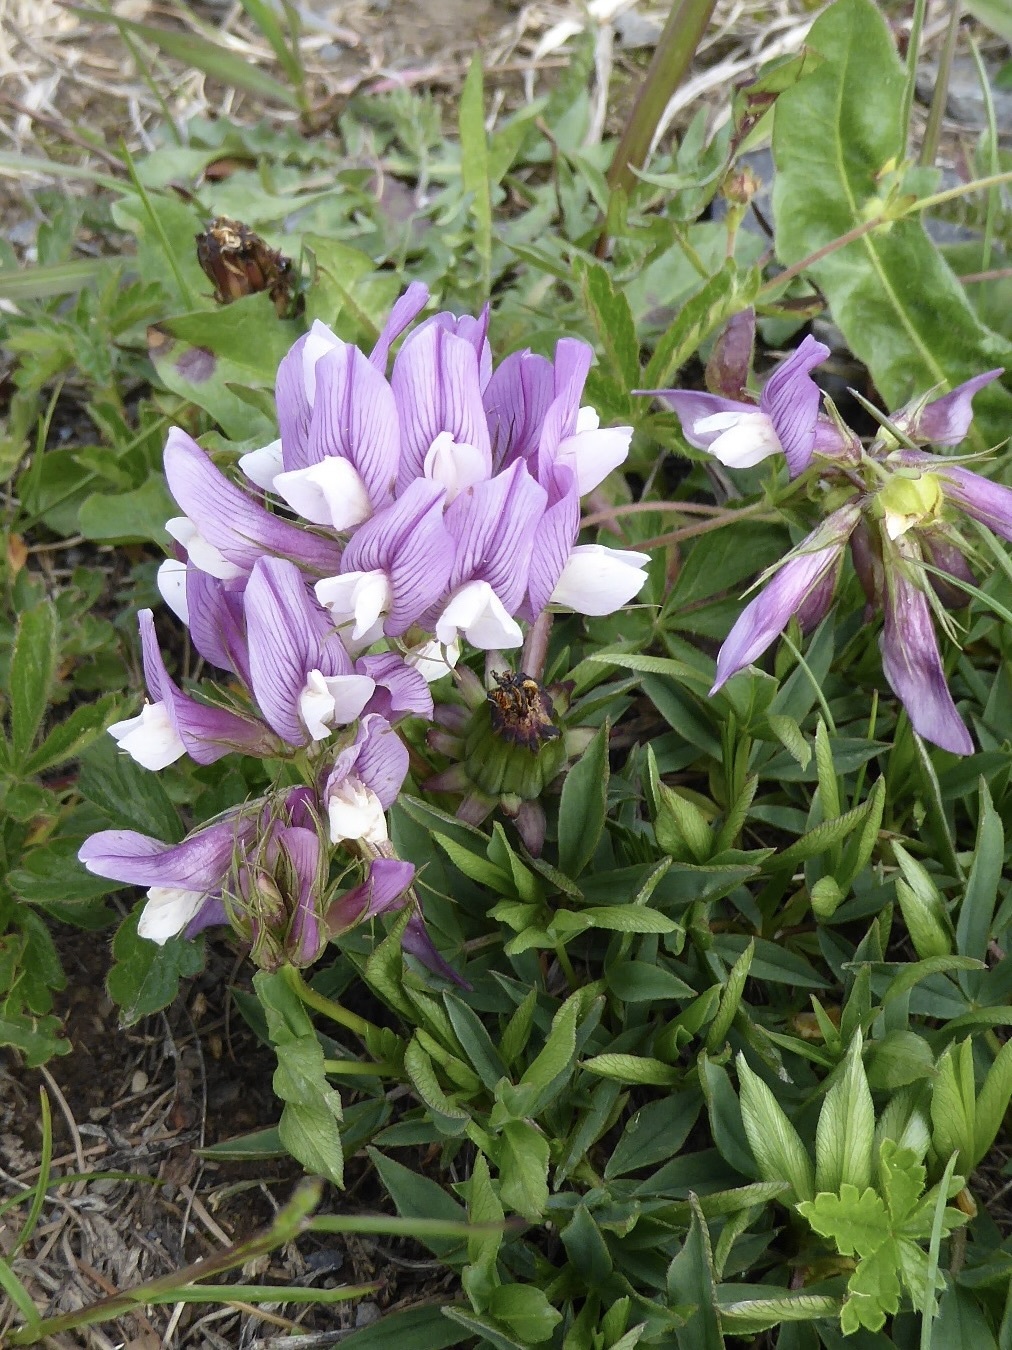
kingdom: Plantae
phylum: Tracheophyta
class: Magnoliopsida
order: Fabales
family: Fabaceae
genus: Trifolium
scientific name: Trifolium alpinum
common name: Alpine clover
